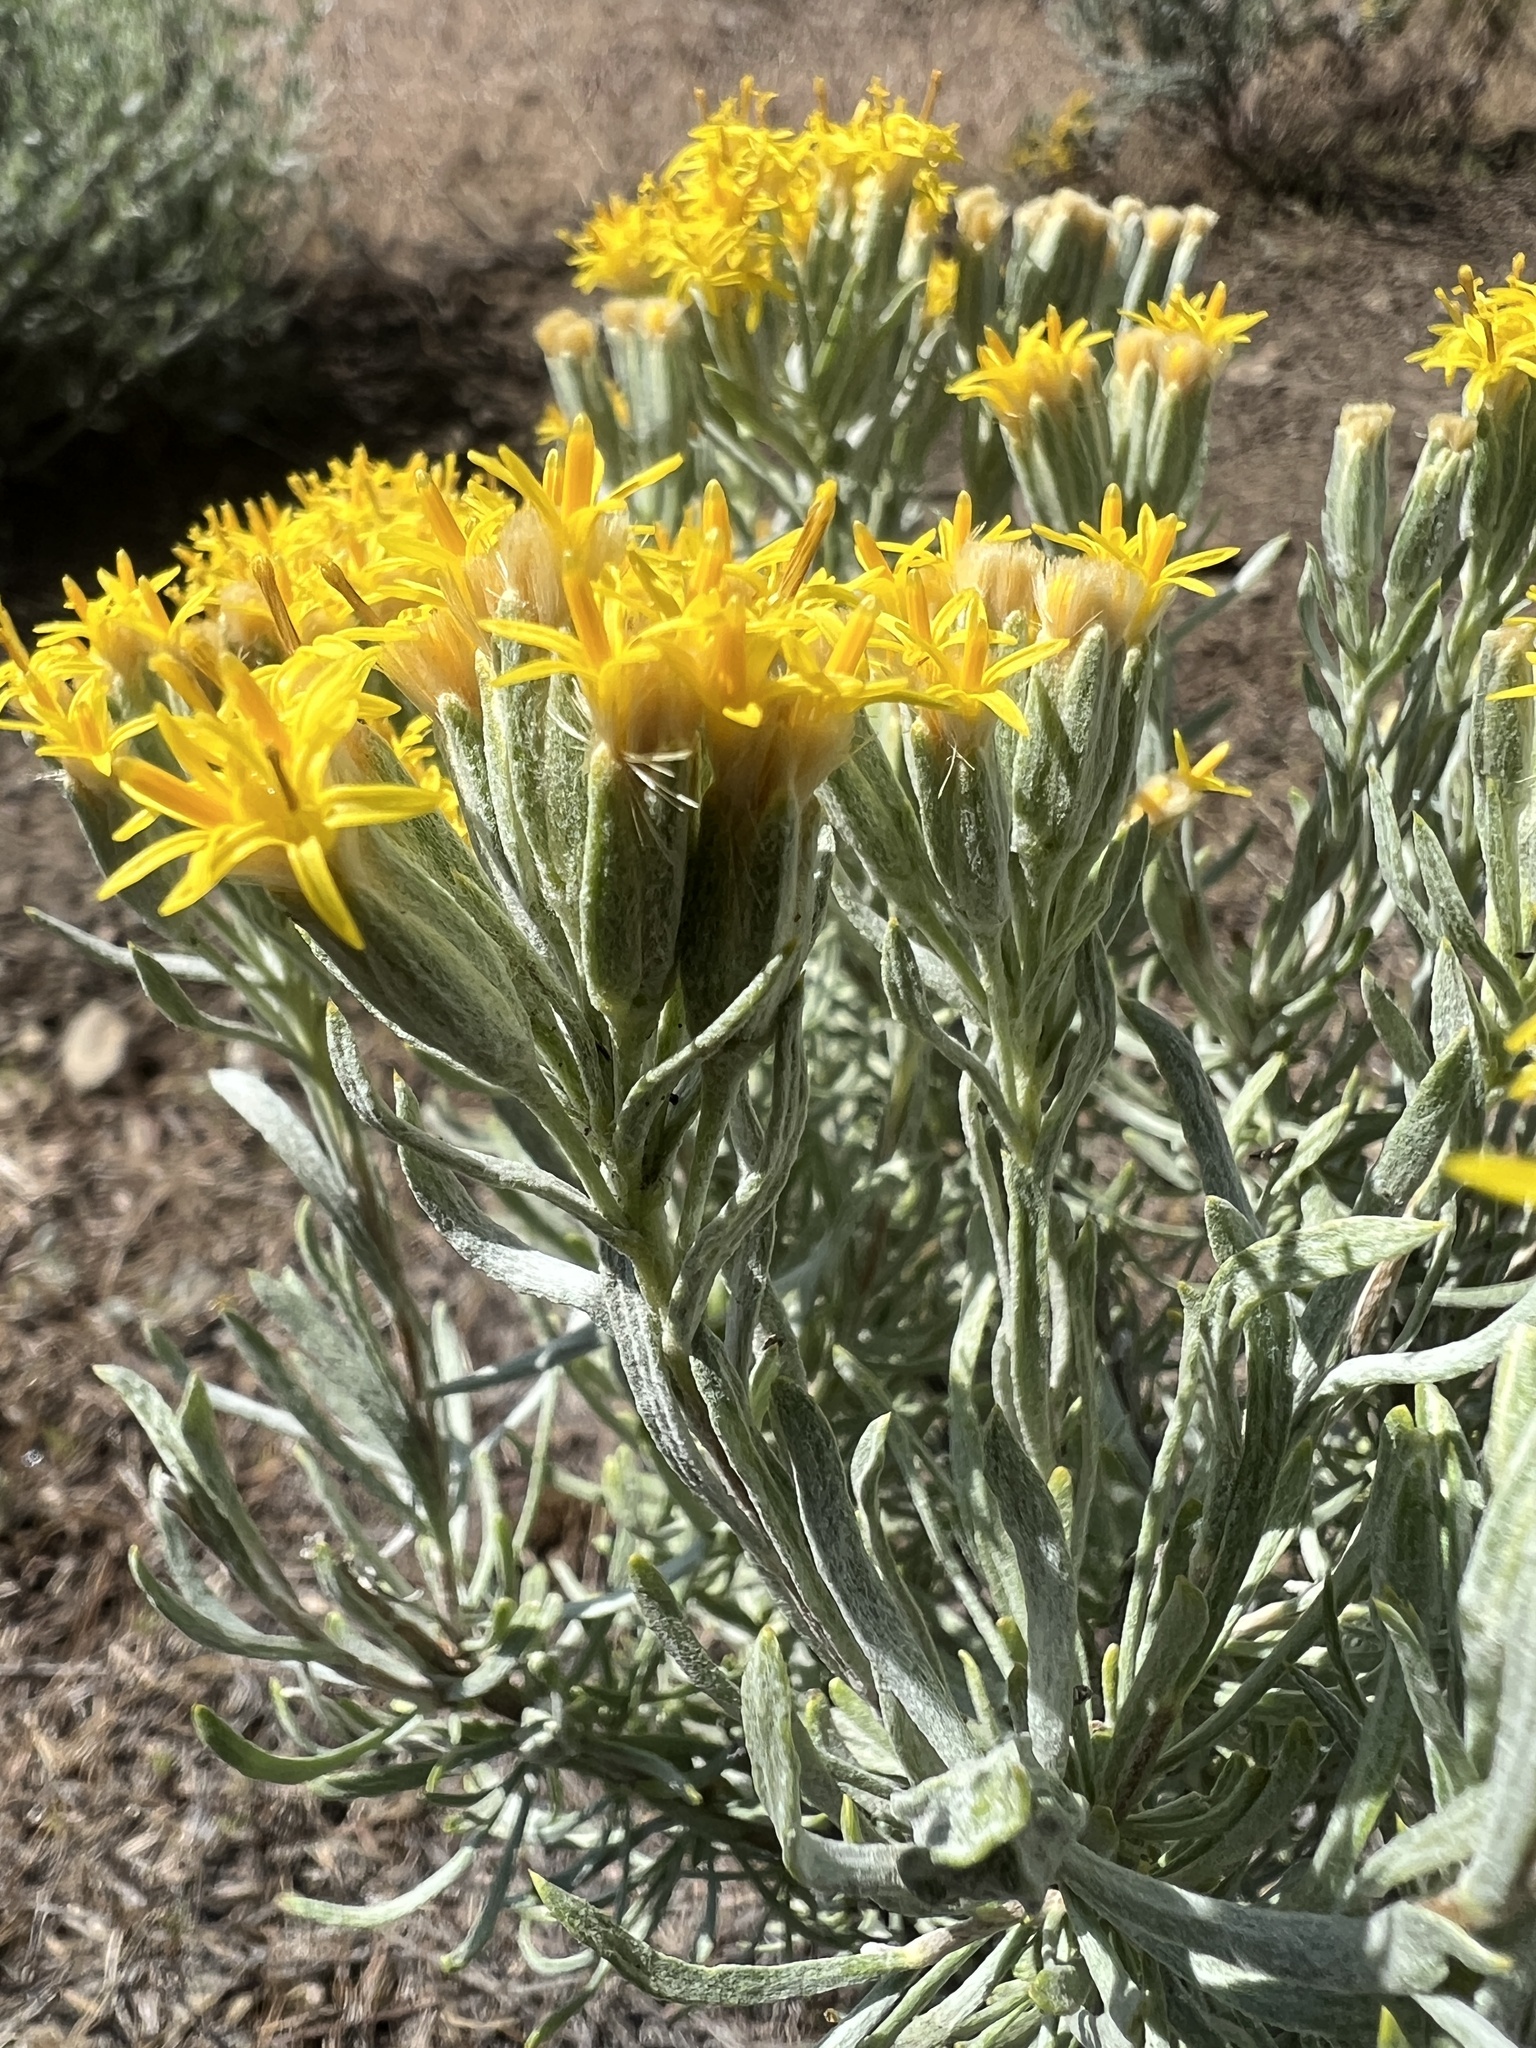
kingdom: Plantae
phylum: Tracheophyta
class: Magnoliopsida
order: Asterales
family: Asteraceae
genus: Tetradymia
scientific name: Tetradymia canescens
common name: Spineless horsebrush
